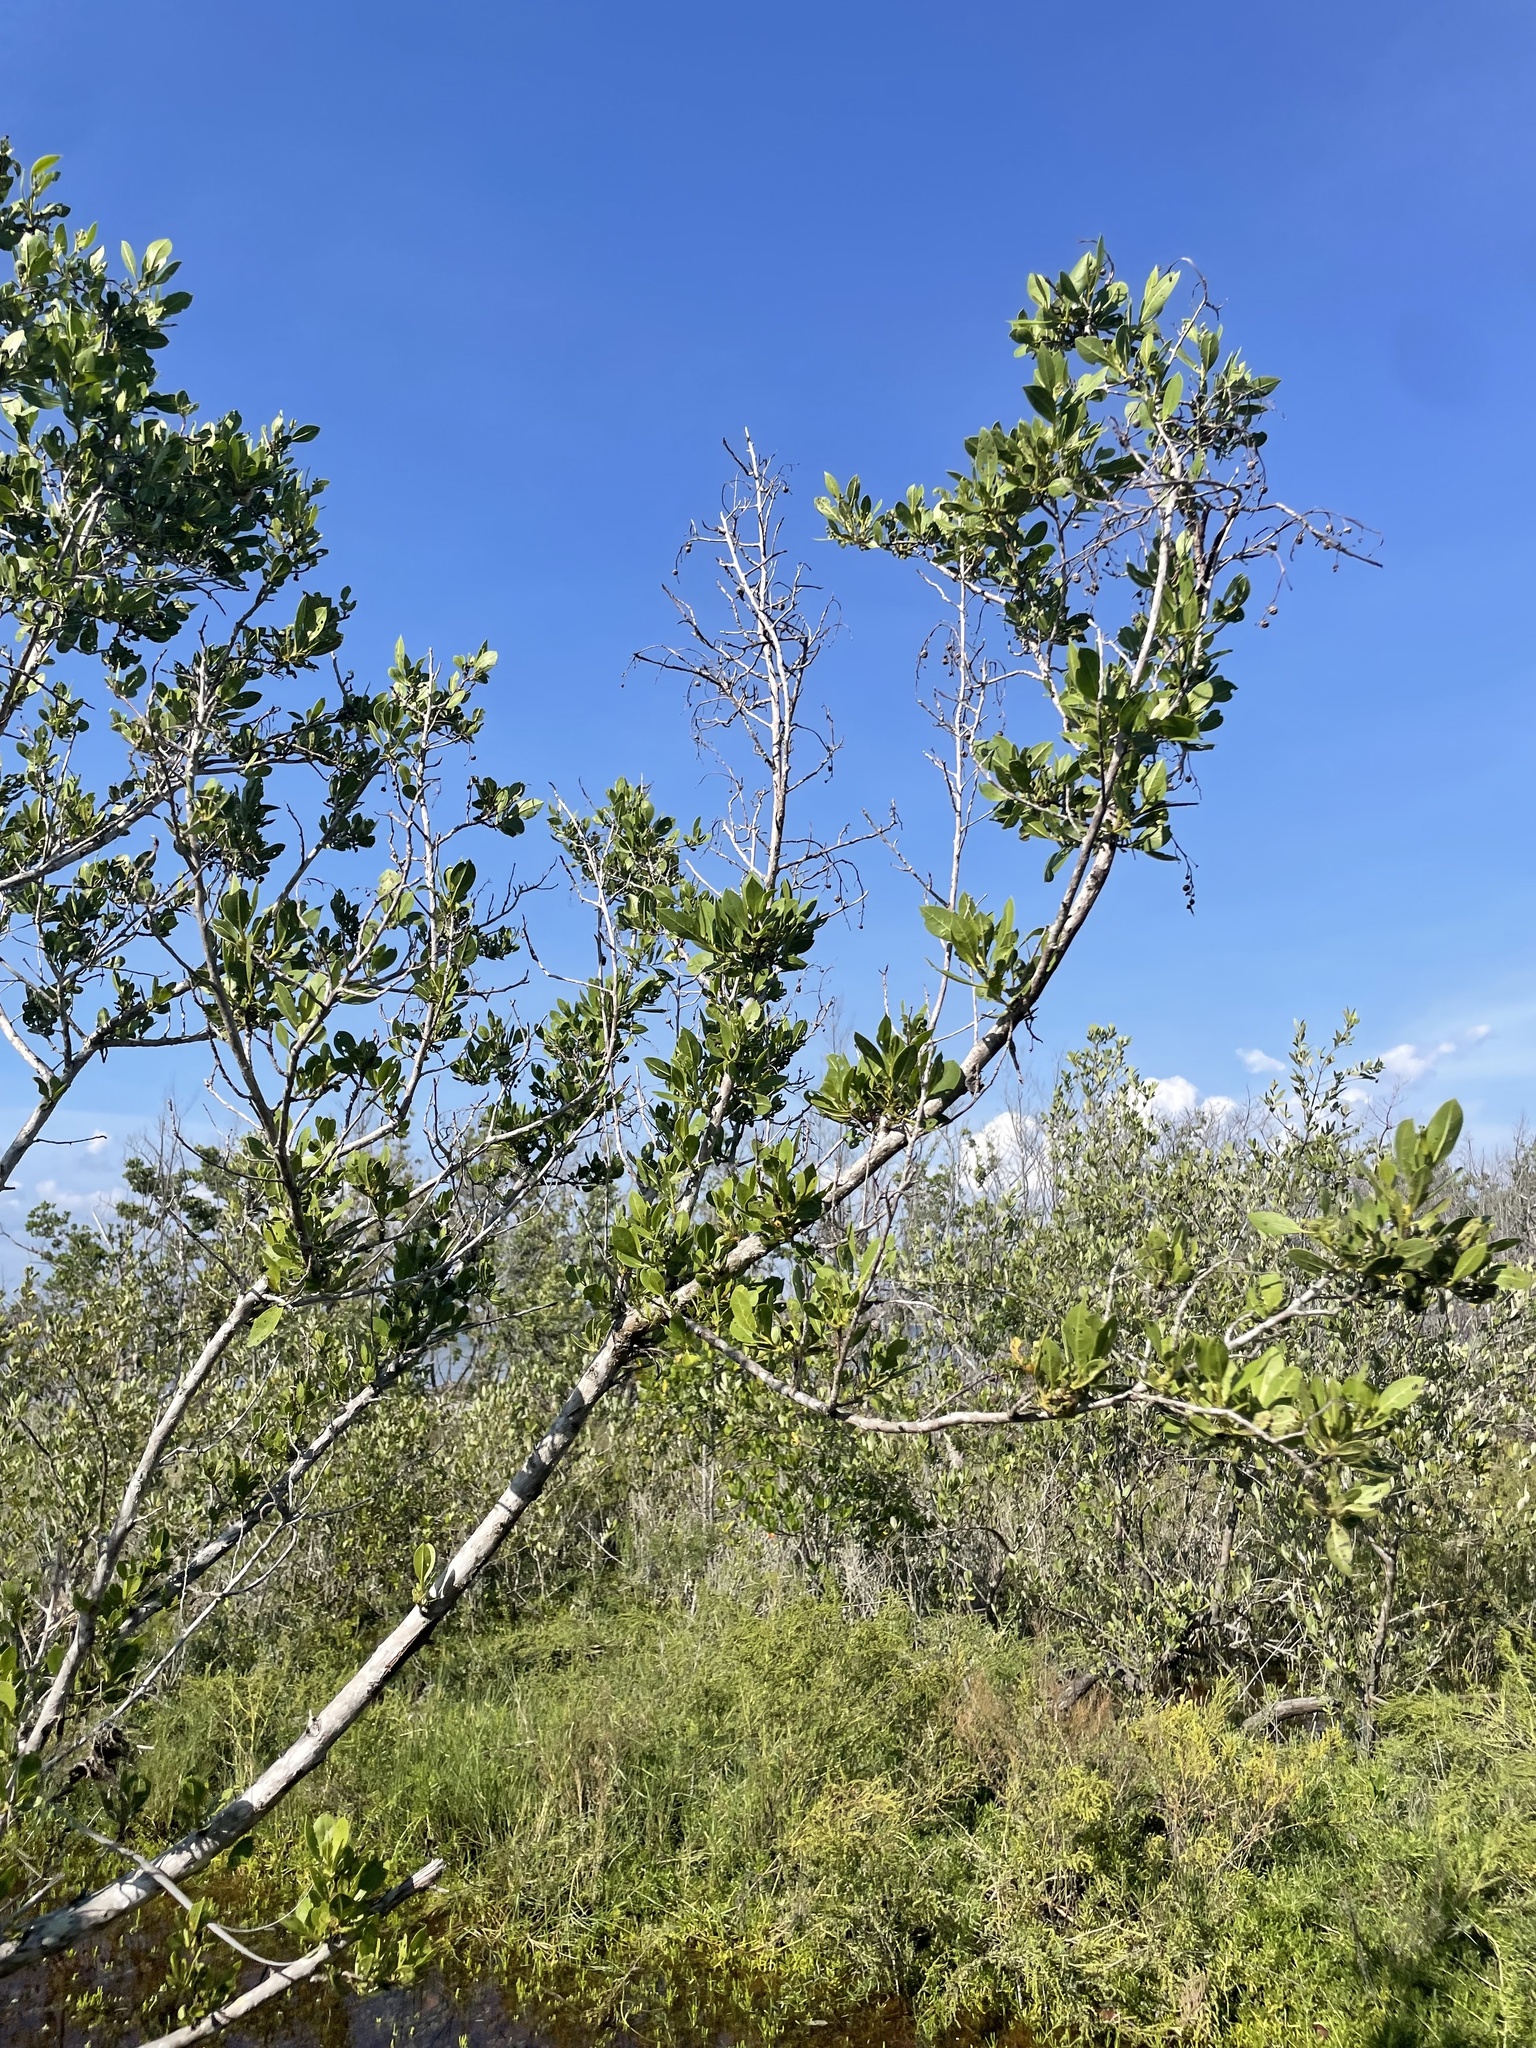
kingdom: Plantae
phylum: Tracheophyta
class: Magnoliopsida
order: Myrtales
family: Combretaceae
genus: Conocarpus
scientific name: Conocarpus erectus
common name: Button mangrove
